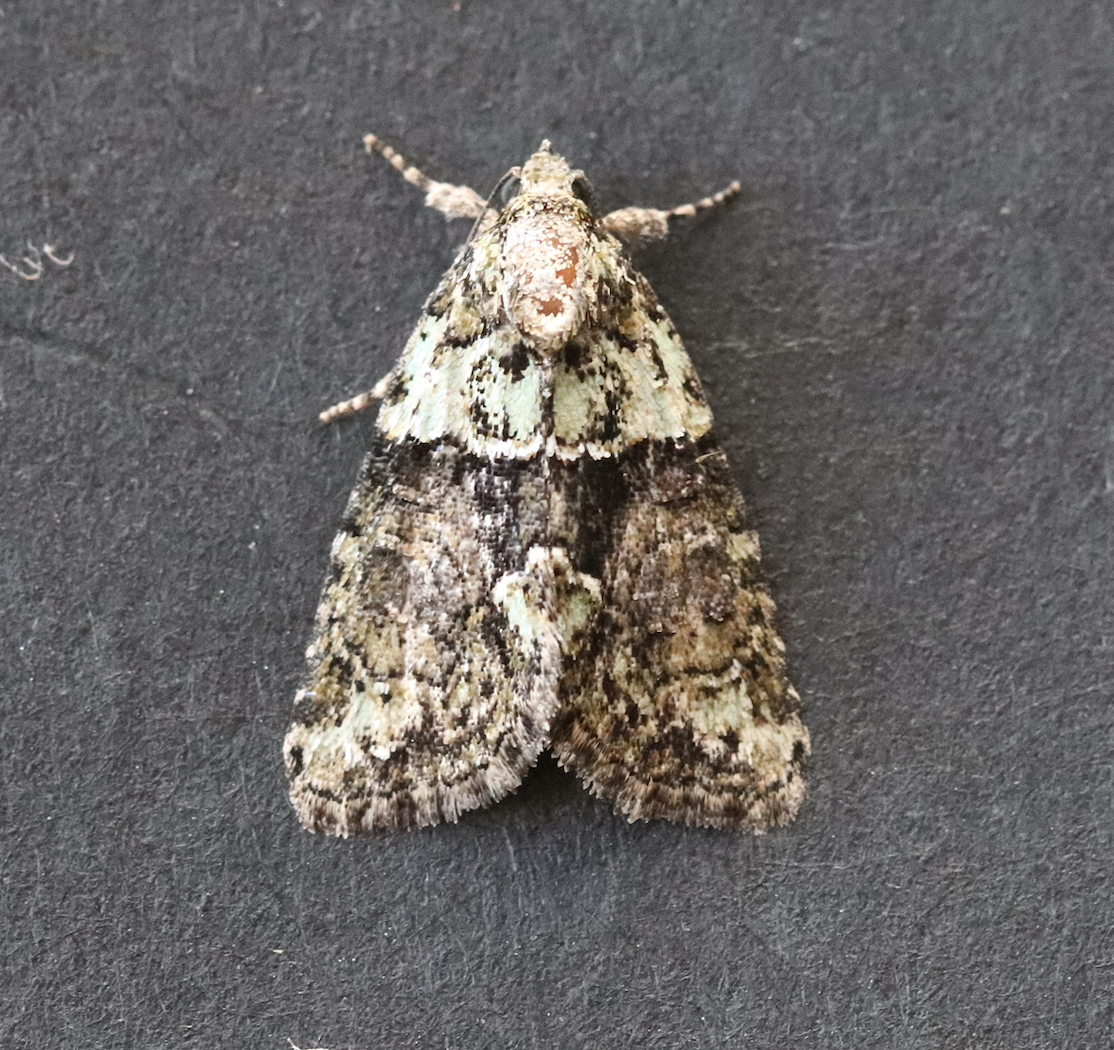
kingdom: Animalia
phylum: Arthropoda
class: Insecta
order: Lepidoptera
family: Noctuidae
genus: Cryphia
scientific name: Cryphia algae
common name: Tree-lichen beauty
